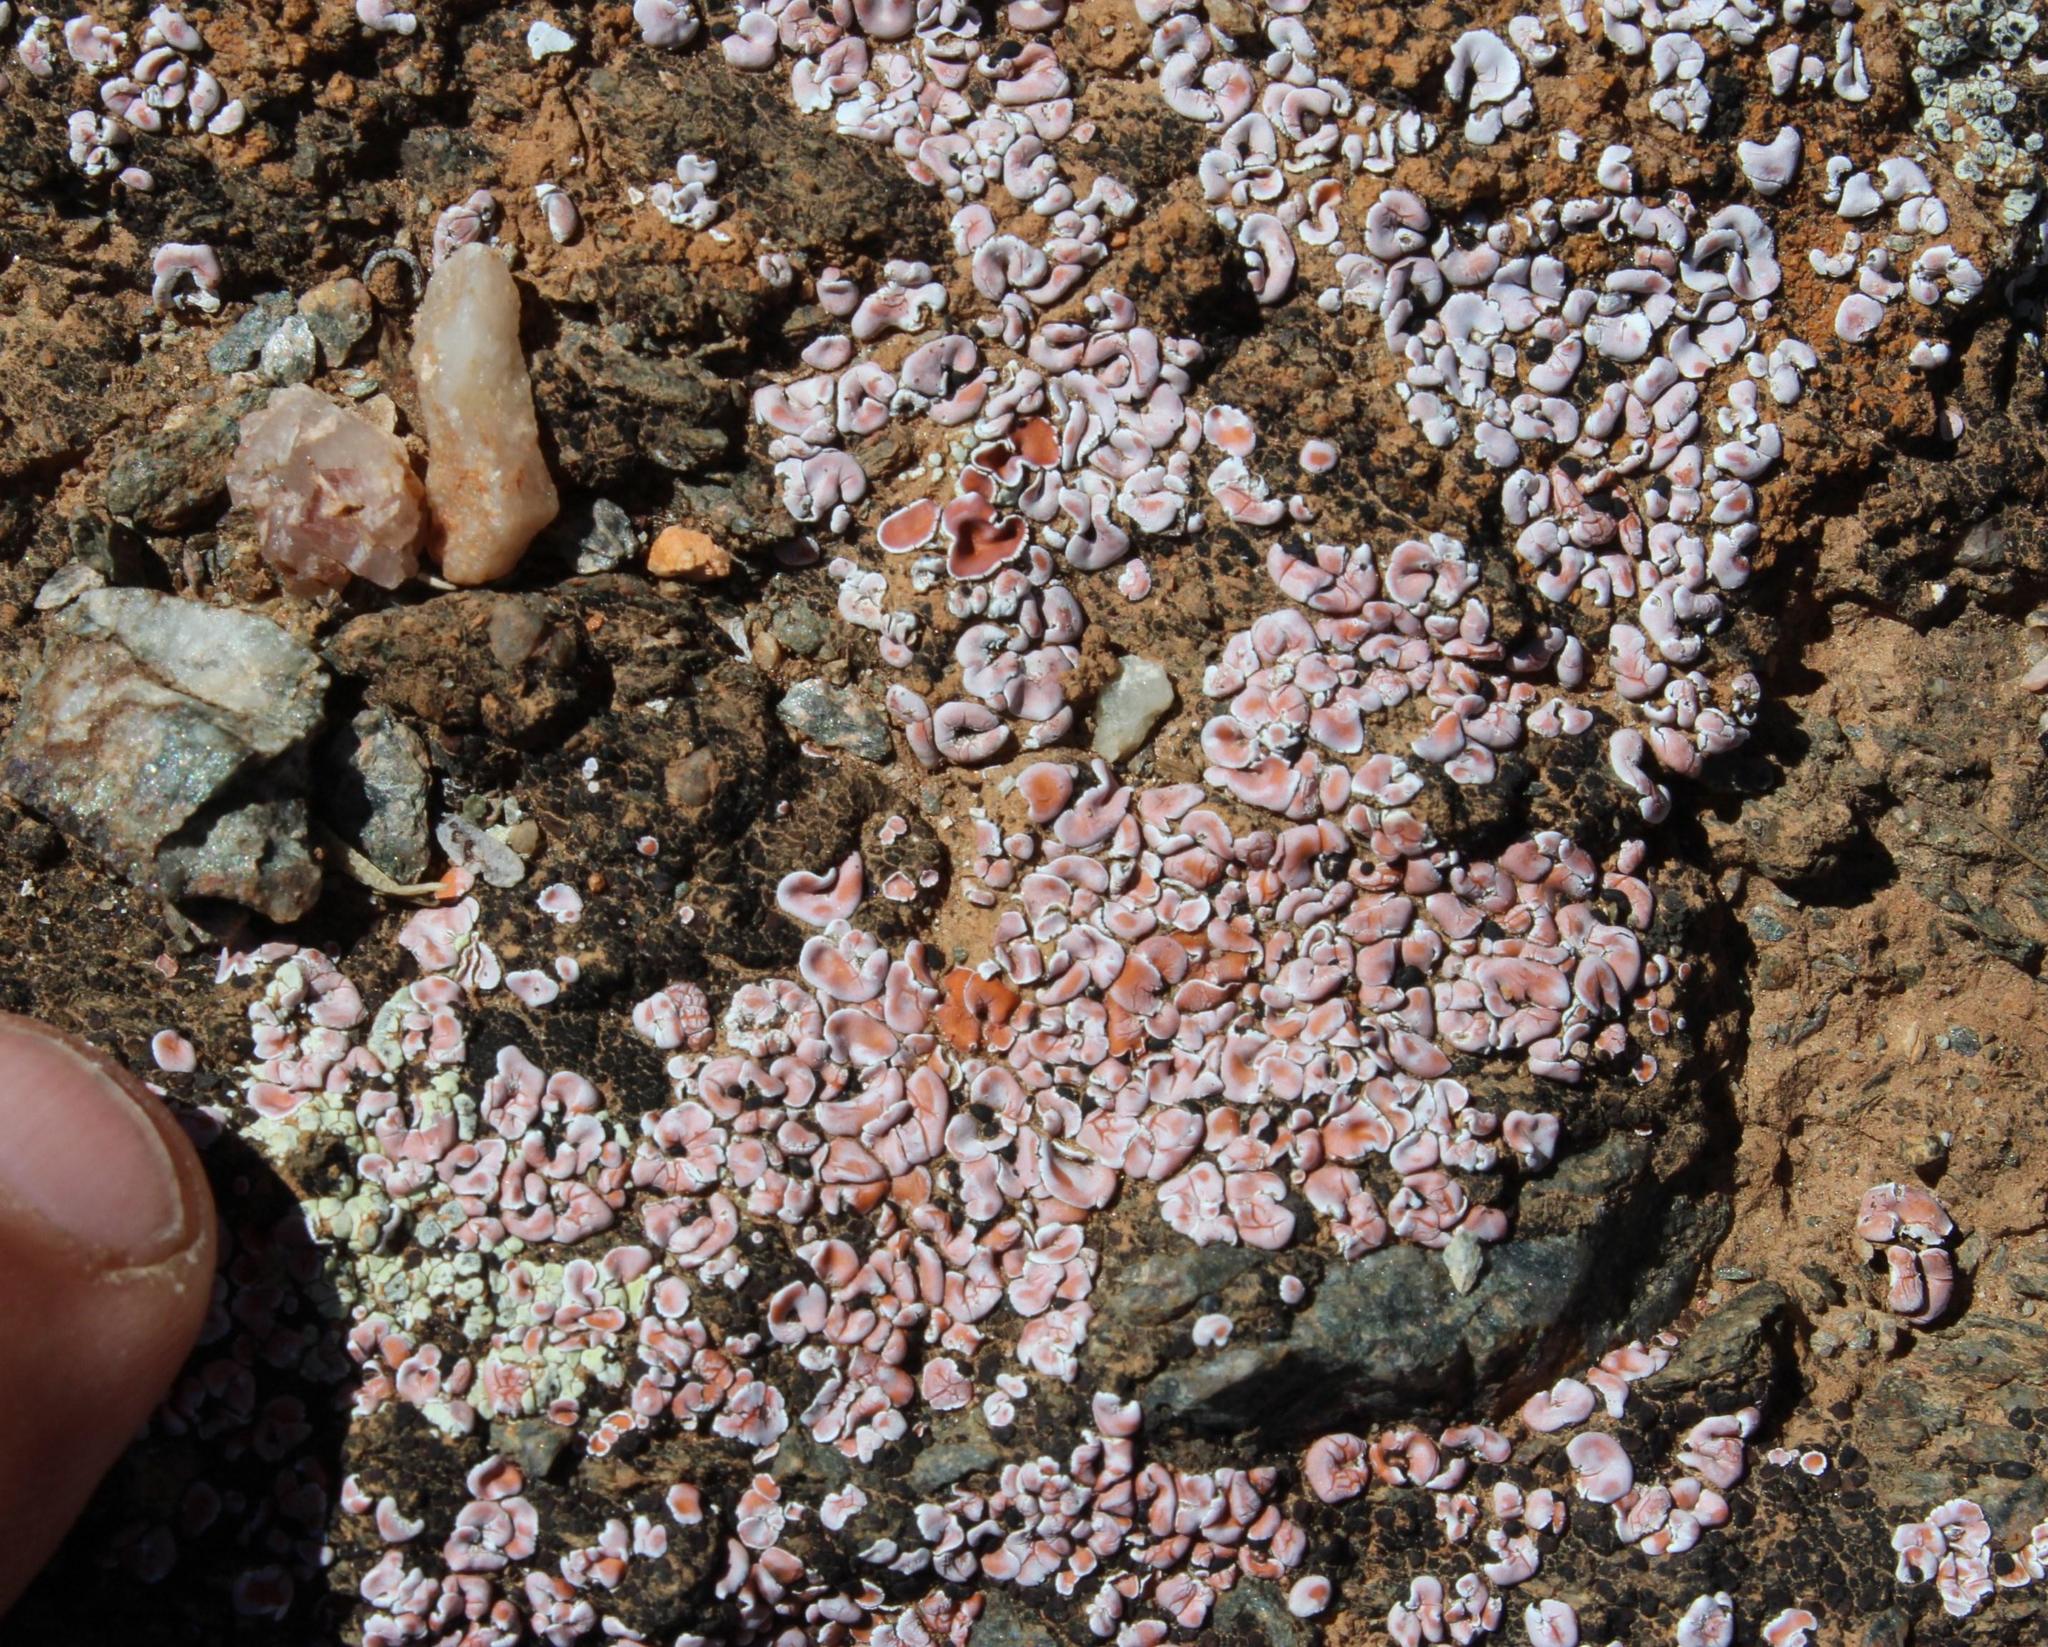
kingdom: Fungi
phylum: Ascomycota
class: Lecanoromycetes
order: Lecanorales
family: Psoraceae
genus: Psora
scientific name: Psora crenata
